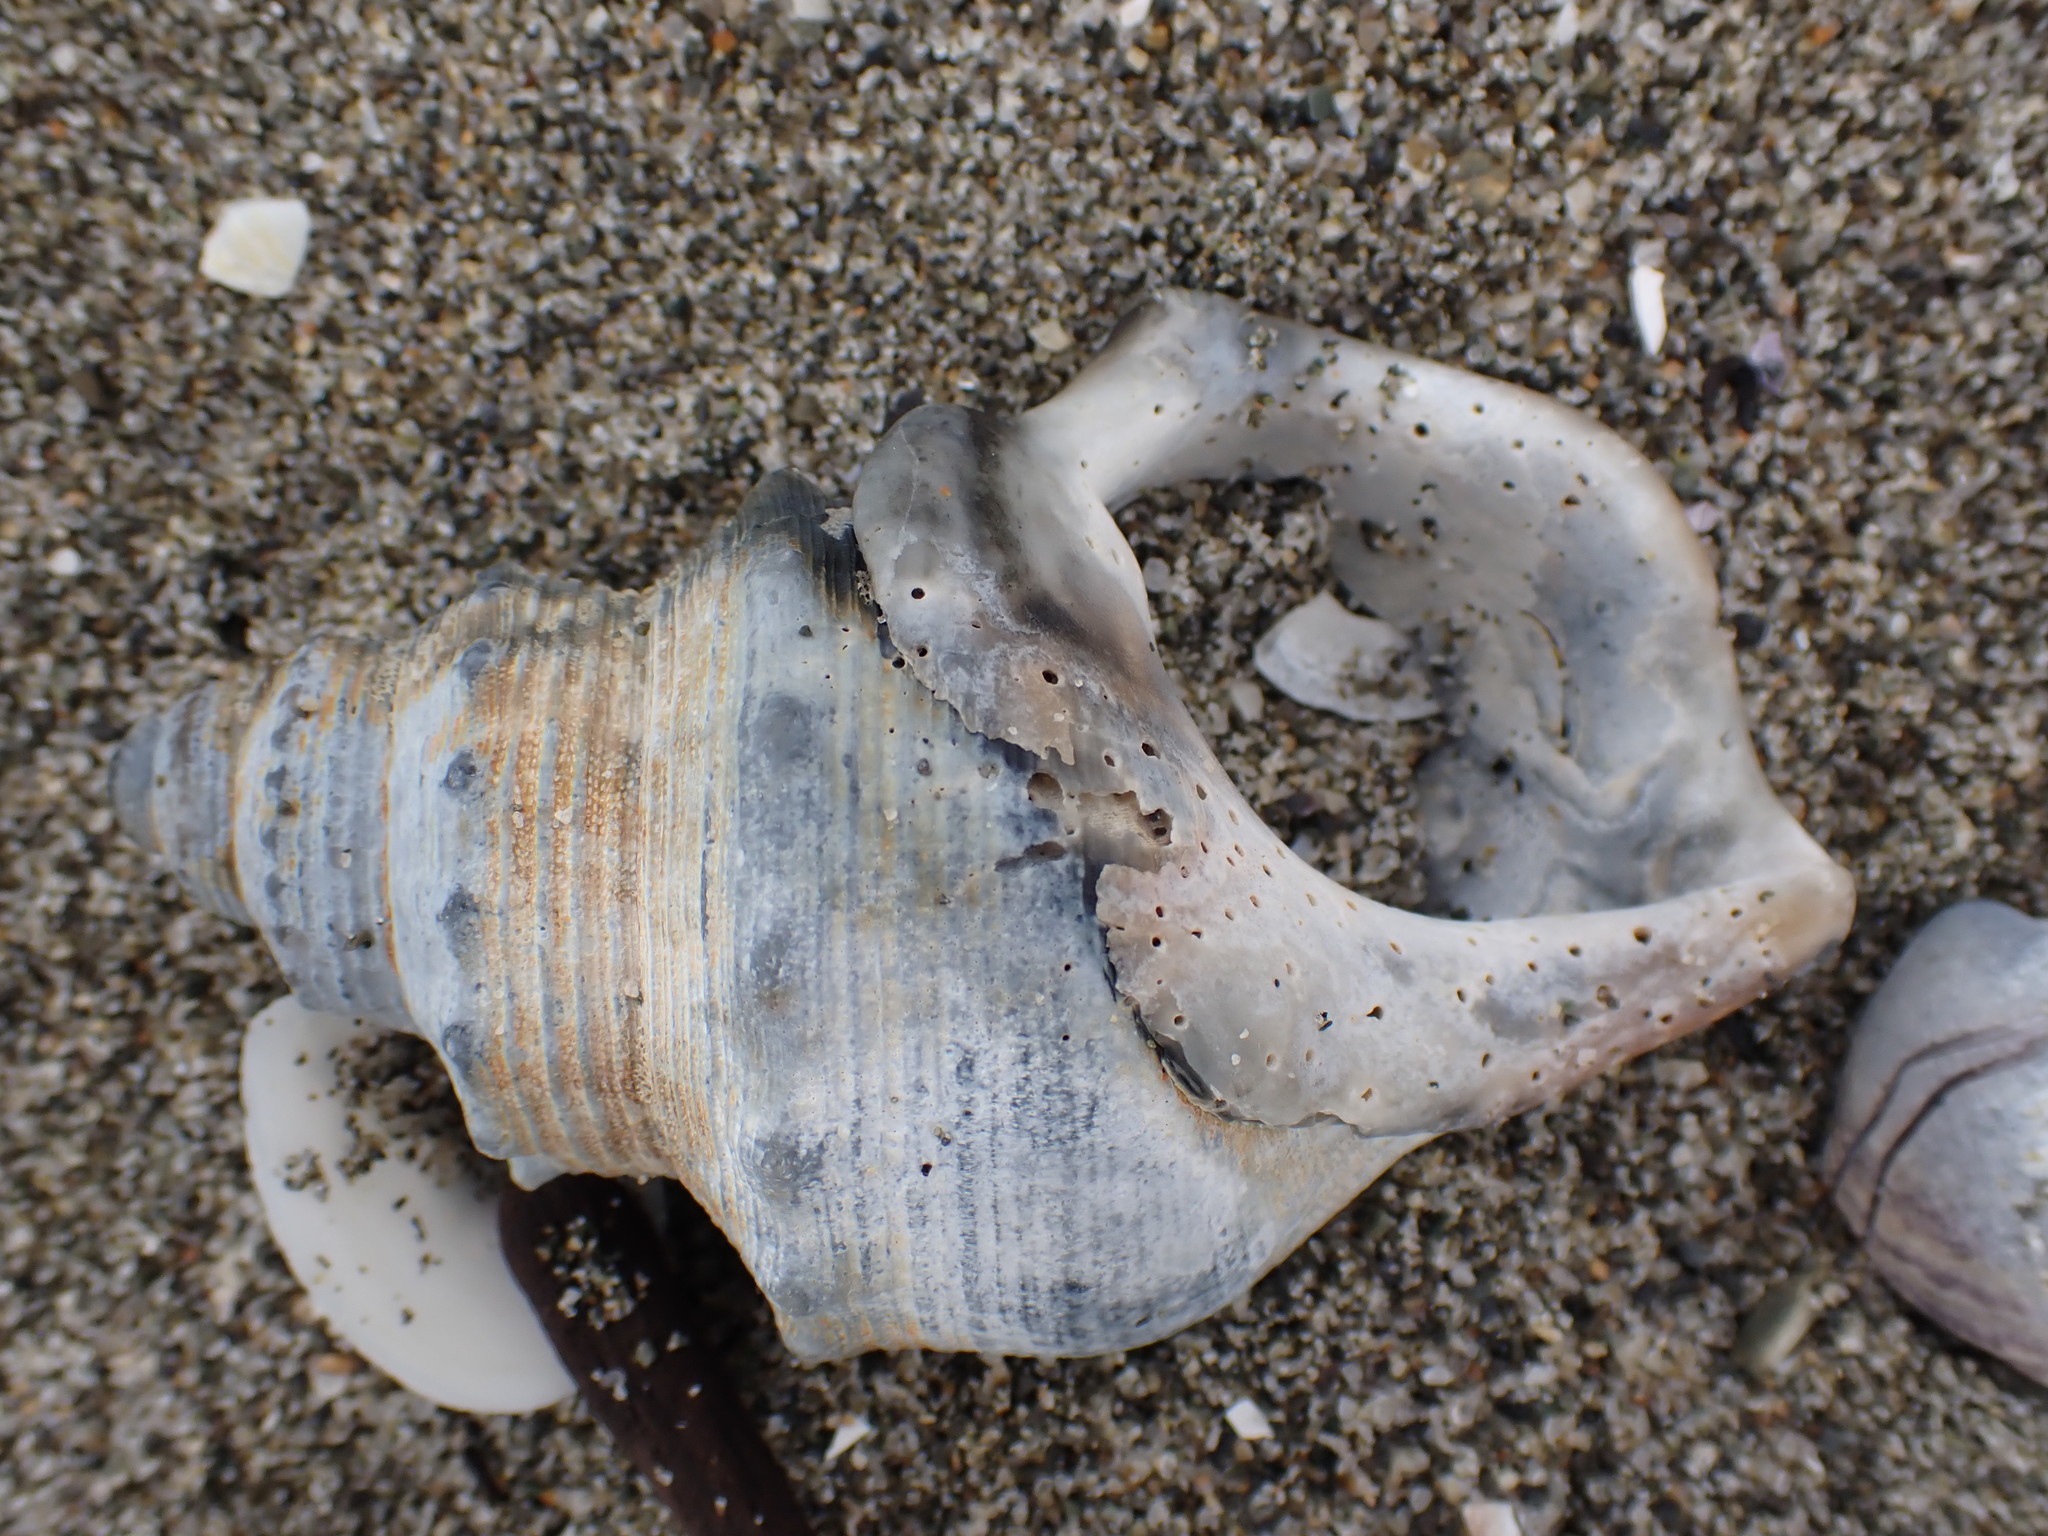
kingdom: Animalia
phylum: Mollusca
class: Gastropoda
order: Littorinimorpha
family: Struthiolariidae
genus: Struthiolaria
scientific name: Struthiolaria papulosa
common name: Large ostrich foot
